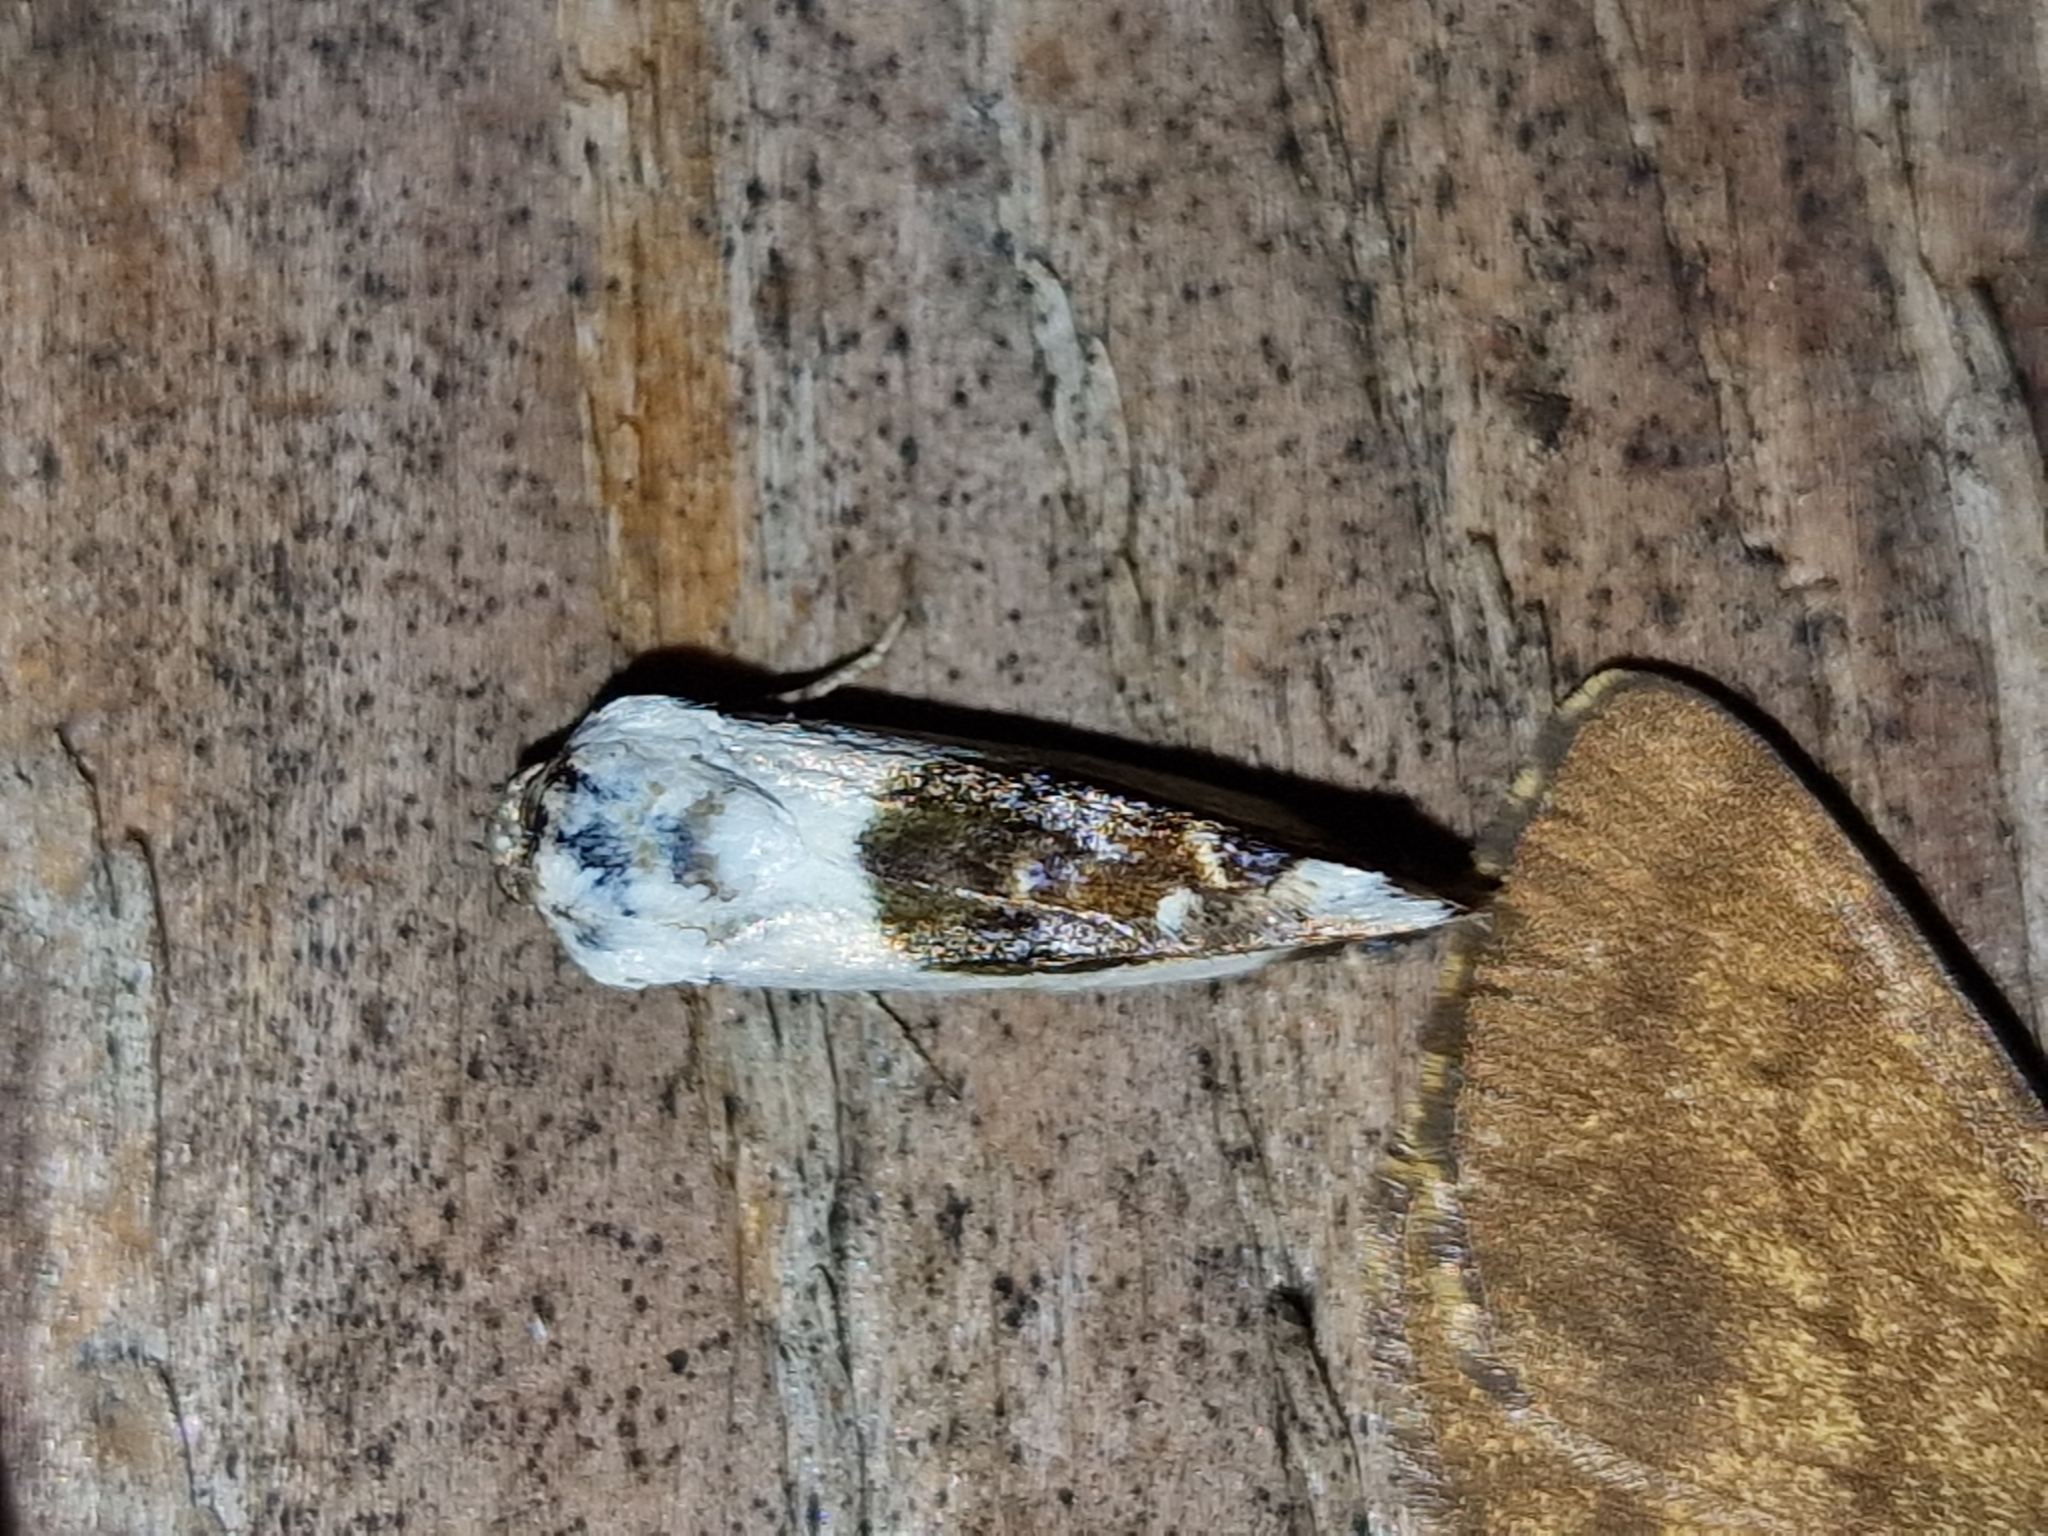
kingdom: Animalia
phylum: Arthropoda
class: Insecta
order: Lepidoptera
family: Noctuidae
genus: Acontia
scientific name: Acontia lucida
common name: Pale shoulder
